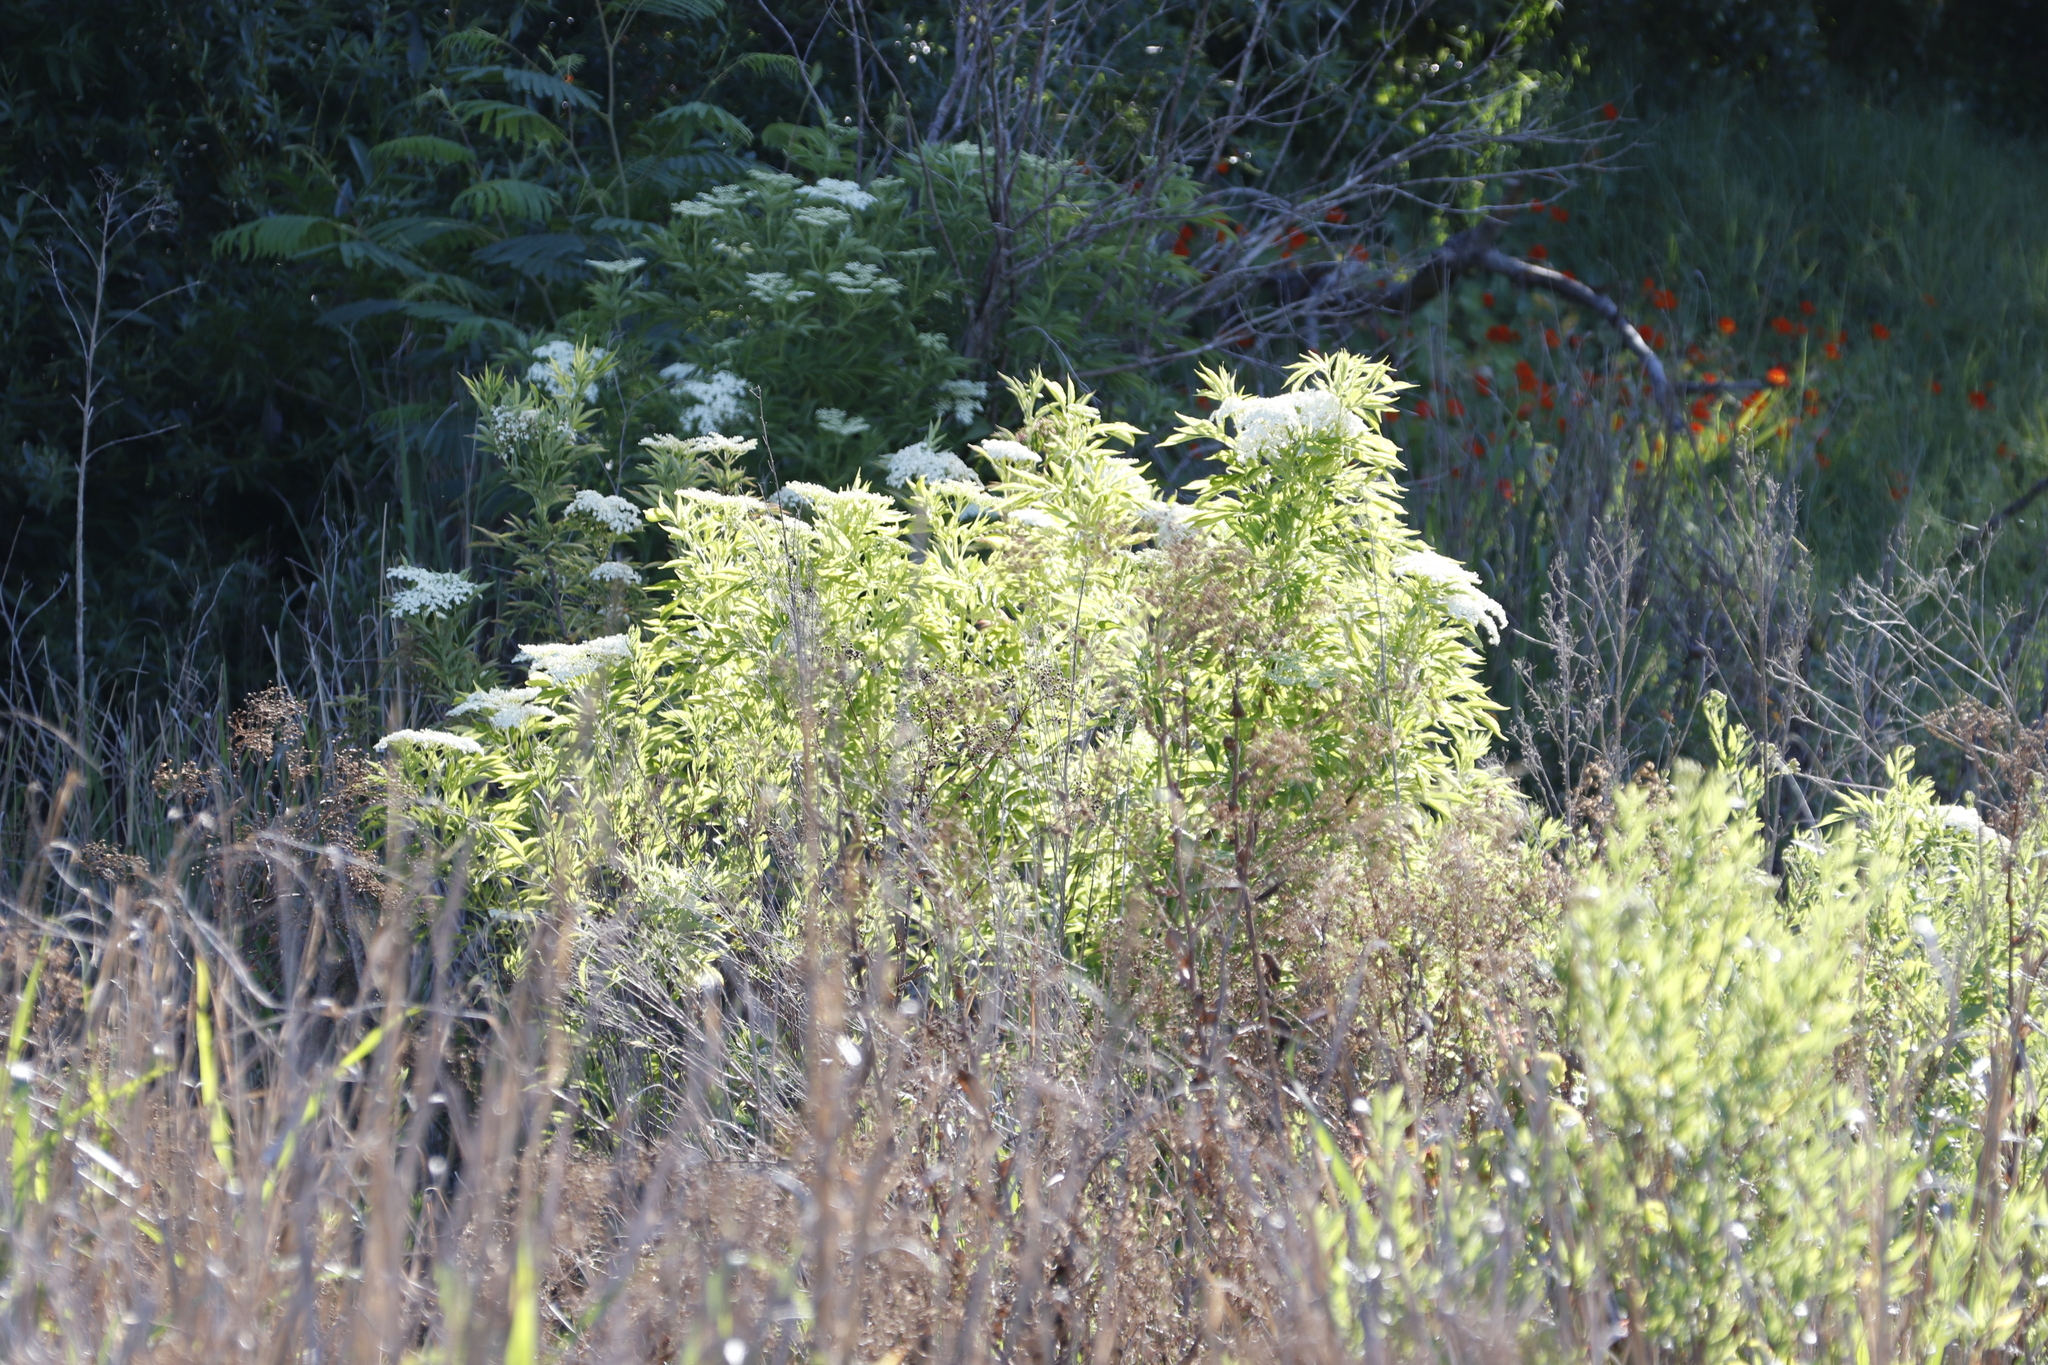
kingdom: Plantae
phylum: Tracheophyta
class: Magnoliopsida
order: Dipsacales
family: Viburnaceae
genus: Sambucus
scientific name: Sambucus nigra
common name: Elder
